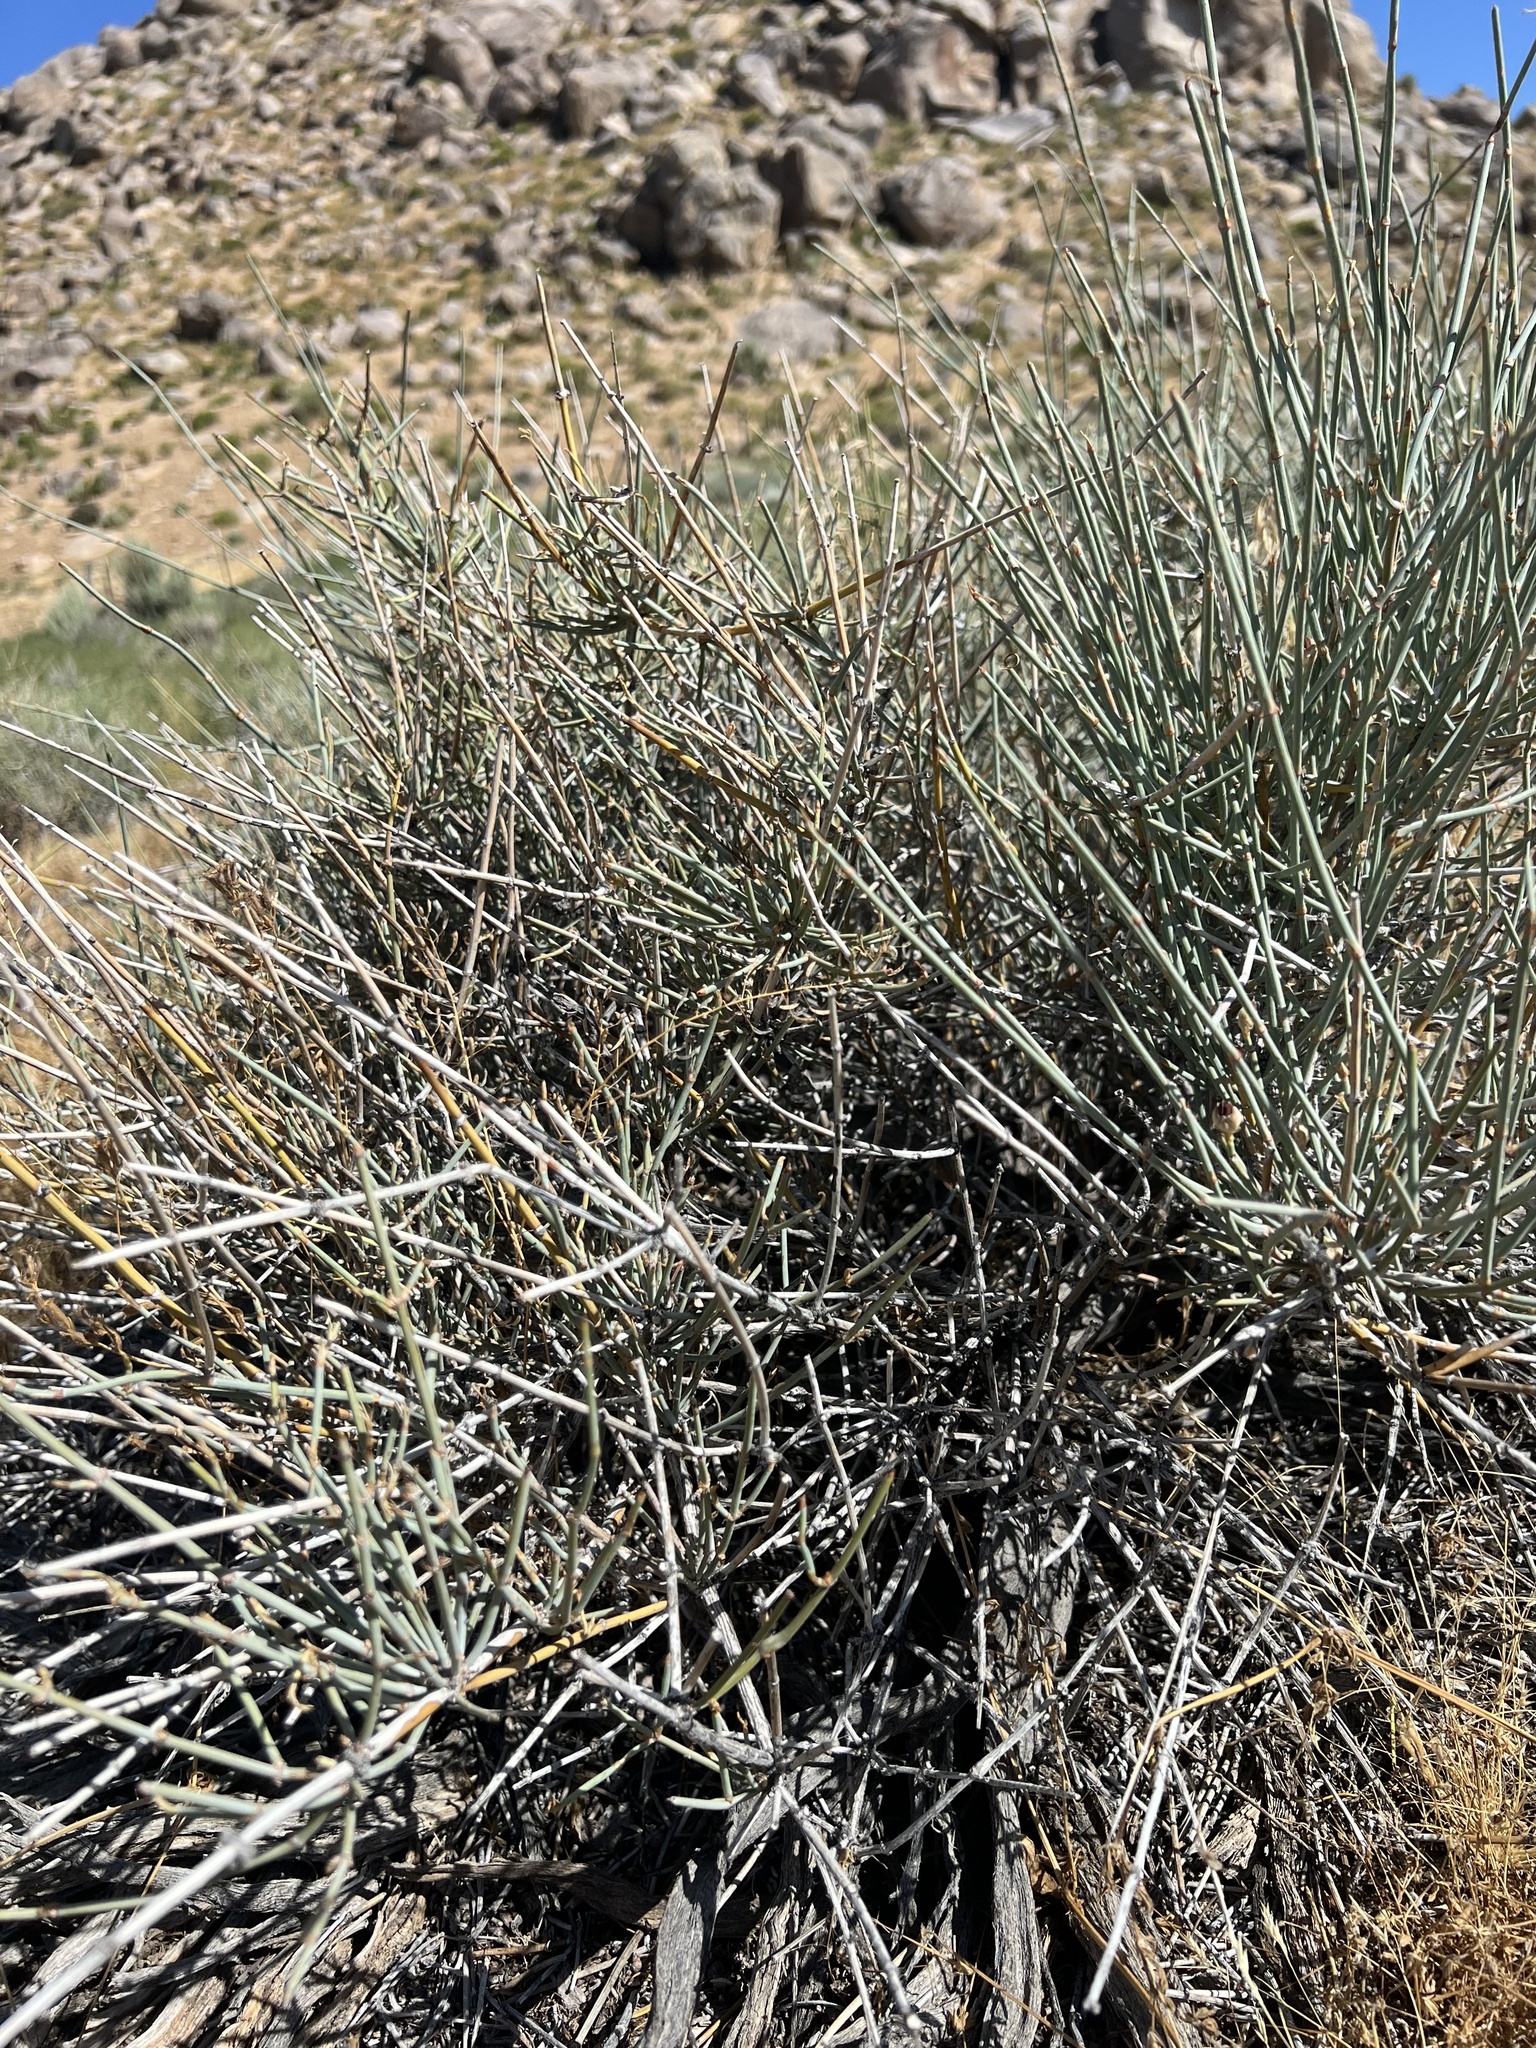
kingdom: Plantae
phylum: Tracheophyta
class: Gnetopsida
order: Ephedrales
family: Ephedraceae
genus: Ephedra
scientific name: Ephedra nevadensis
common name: Gray ephedra
